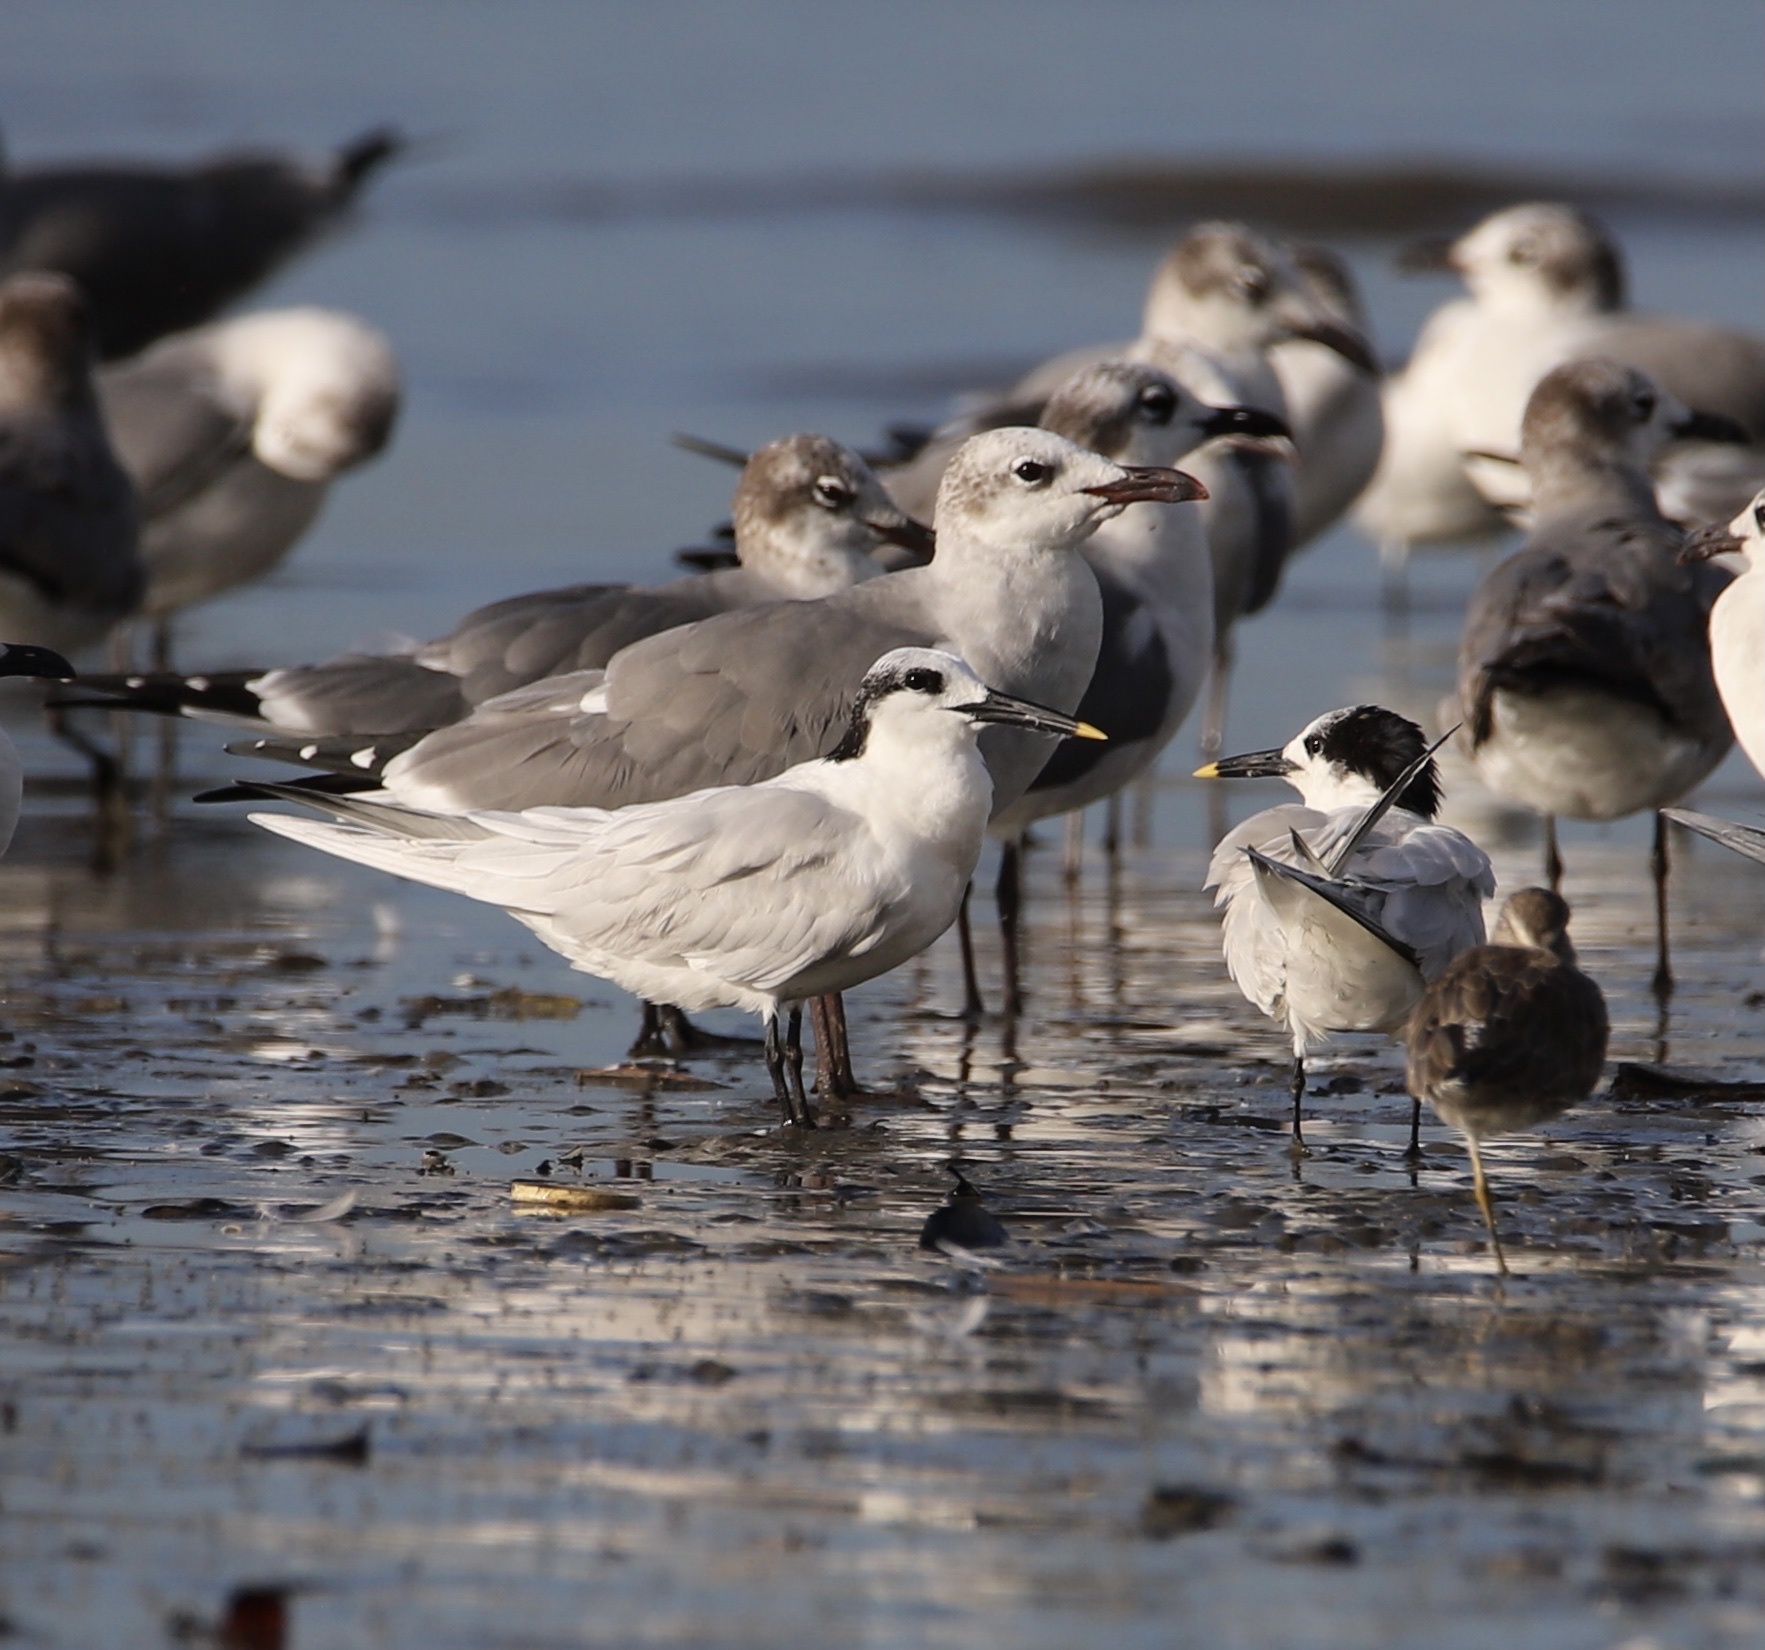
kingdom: Animalia
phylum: Chordata
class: Aves
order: Charadriiformes
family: Laridae
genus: Thalasseus
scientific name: Thalasseus sandvicensis
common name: Sandwich tern
